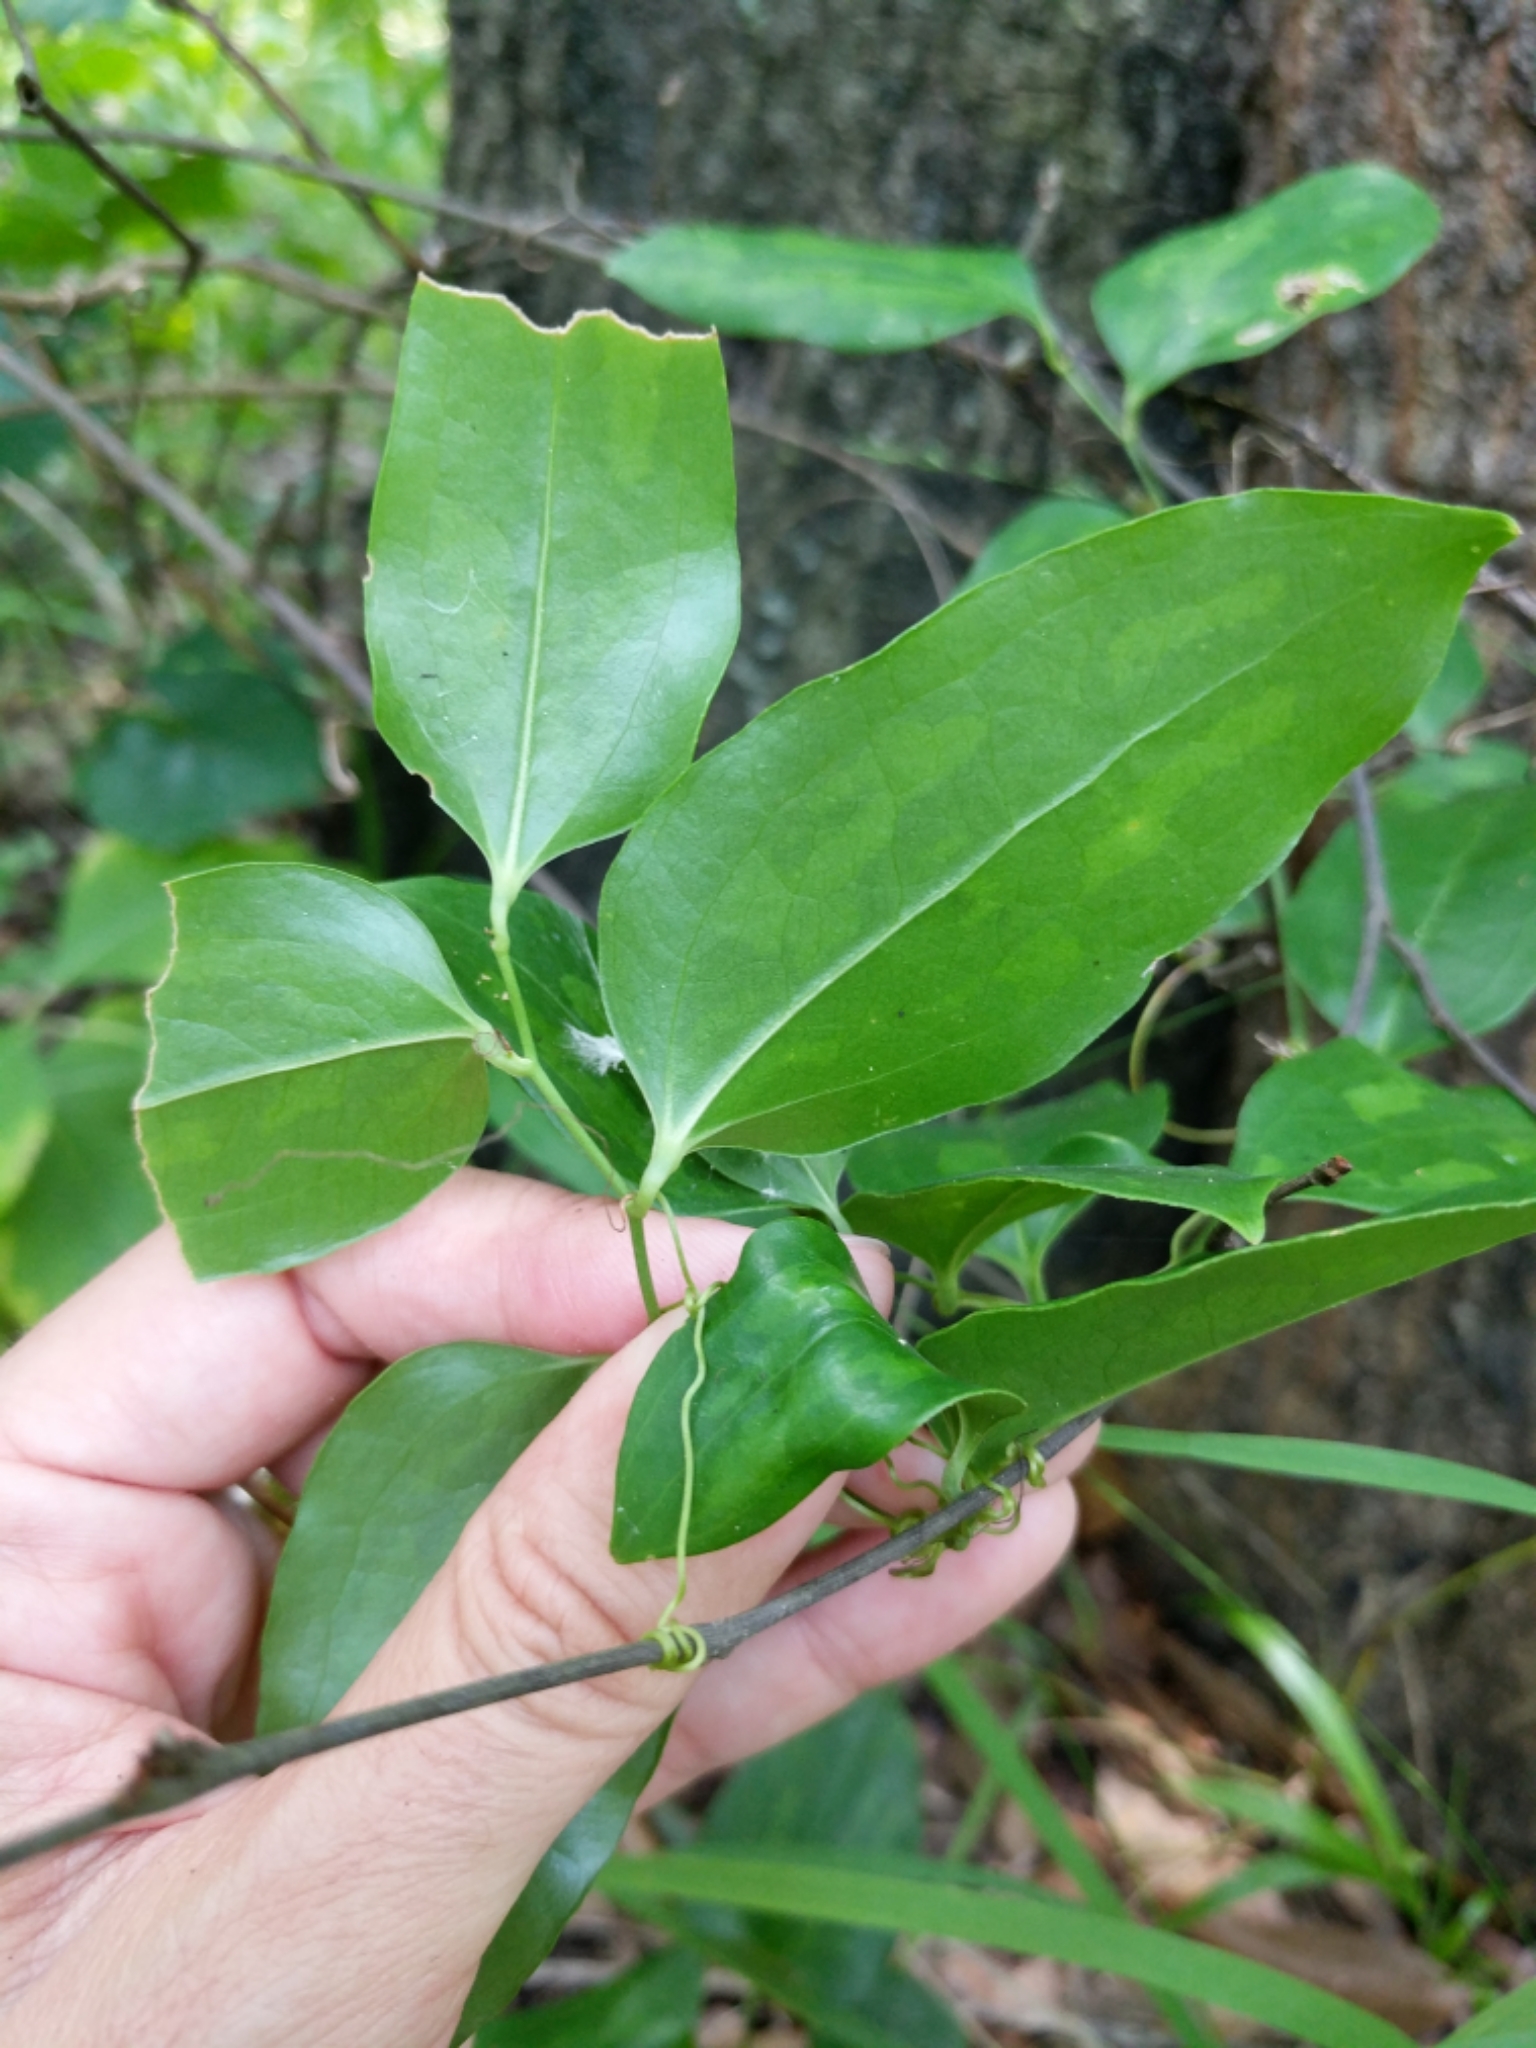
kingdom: Plantae
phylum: Tracheophyta
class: Liliopsida
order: Liliales
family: Smilacaceae
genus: Smilax
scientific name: Smilax maritima
